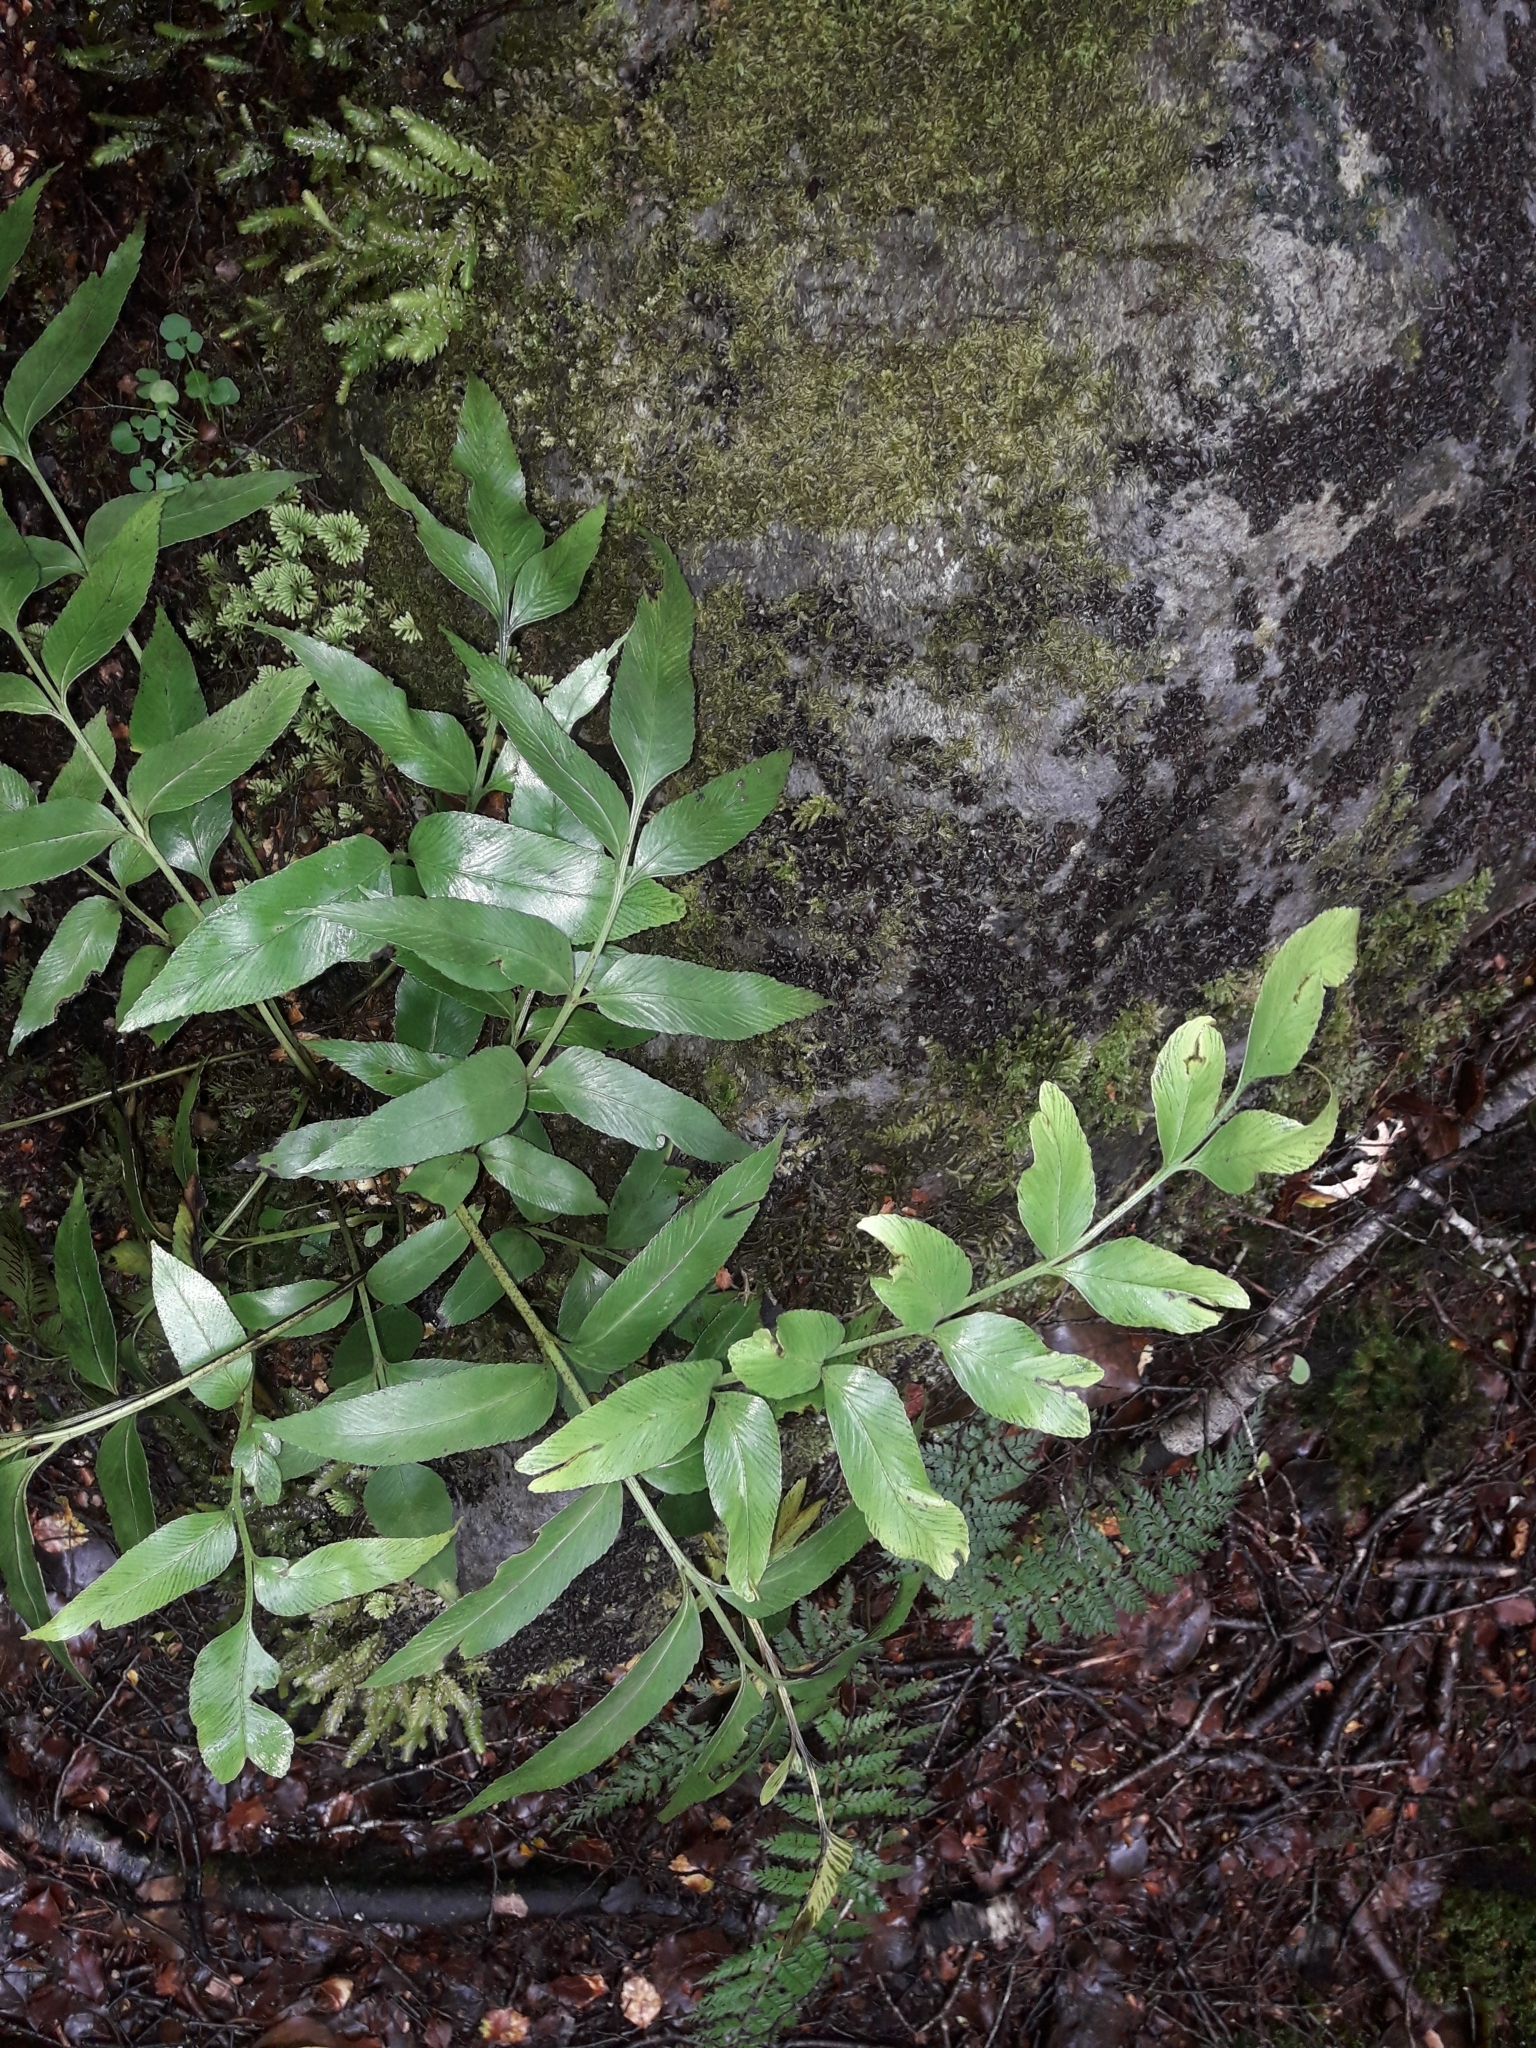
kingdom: Plantae
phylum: Tracheophyta
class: Polypodiopsida
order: Polypodiales
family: Aspleniaceae
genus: Asplenium
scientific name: Asplenium lepidotum
